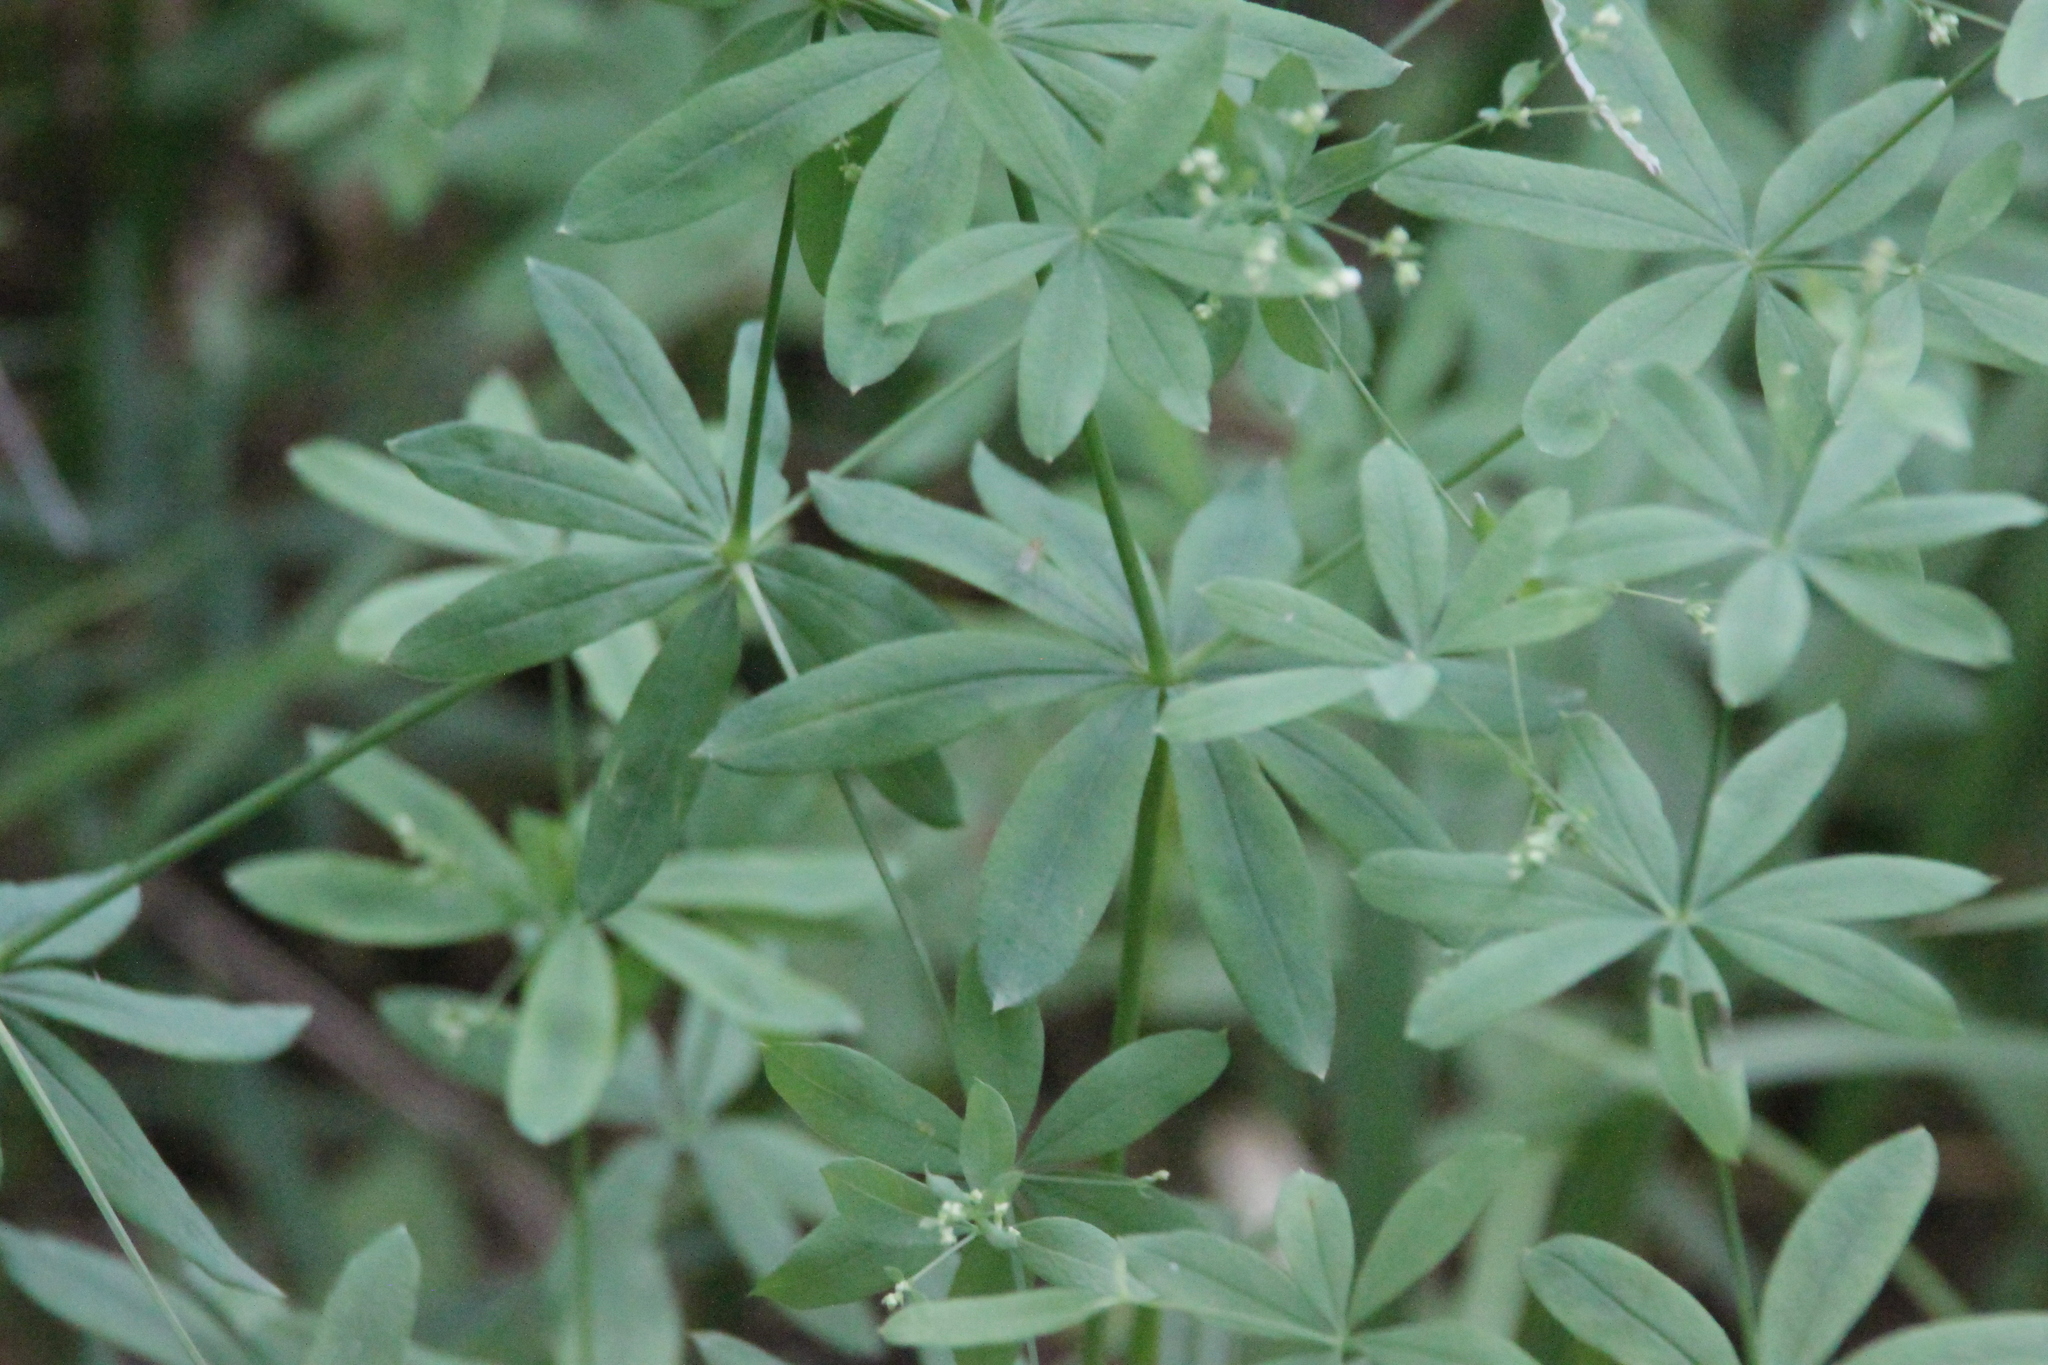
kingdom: Plantae
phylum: Tracheophyta
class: Magnoliopsida
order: Gentianales
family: Rubiaceae
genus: Galium
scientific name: Galium intermedium
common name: Bedstraw
